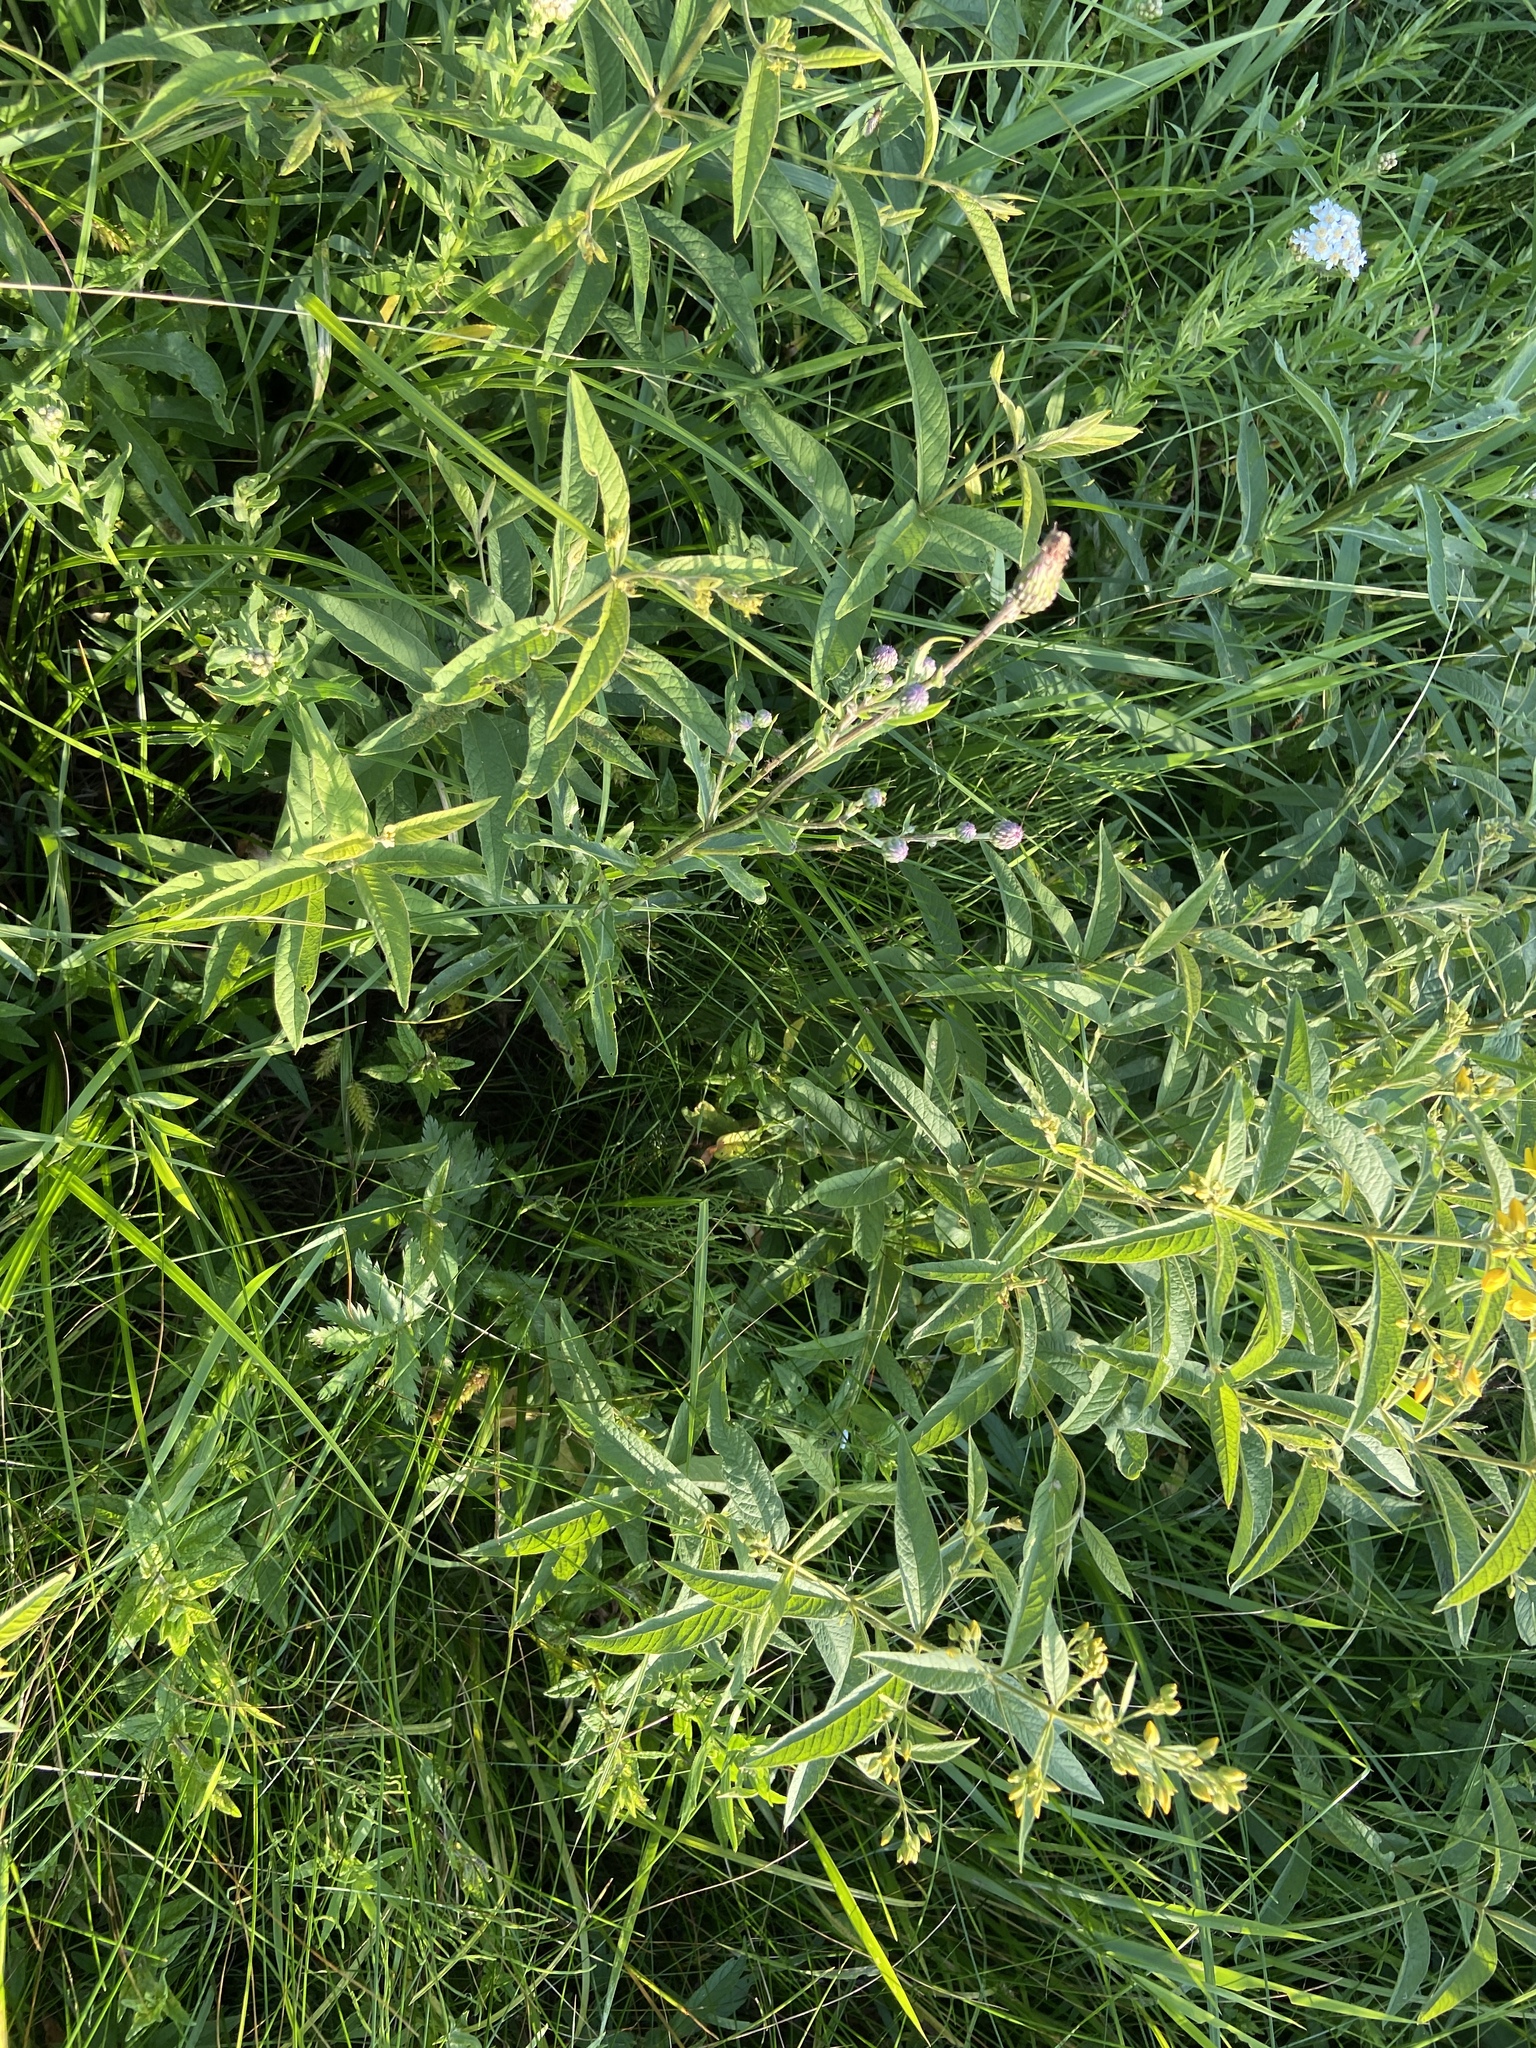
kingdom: Plantae
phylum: Tracheophyta
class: Magnoliopsida
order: Asterales
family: Asteraceae
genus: Cirsium
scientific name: Cirsium arvense
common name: Creeping thistle
